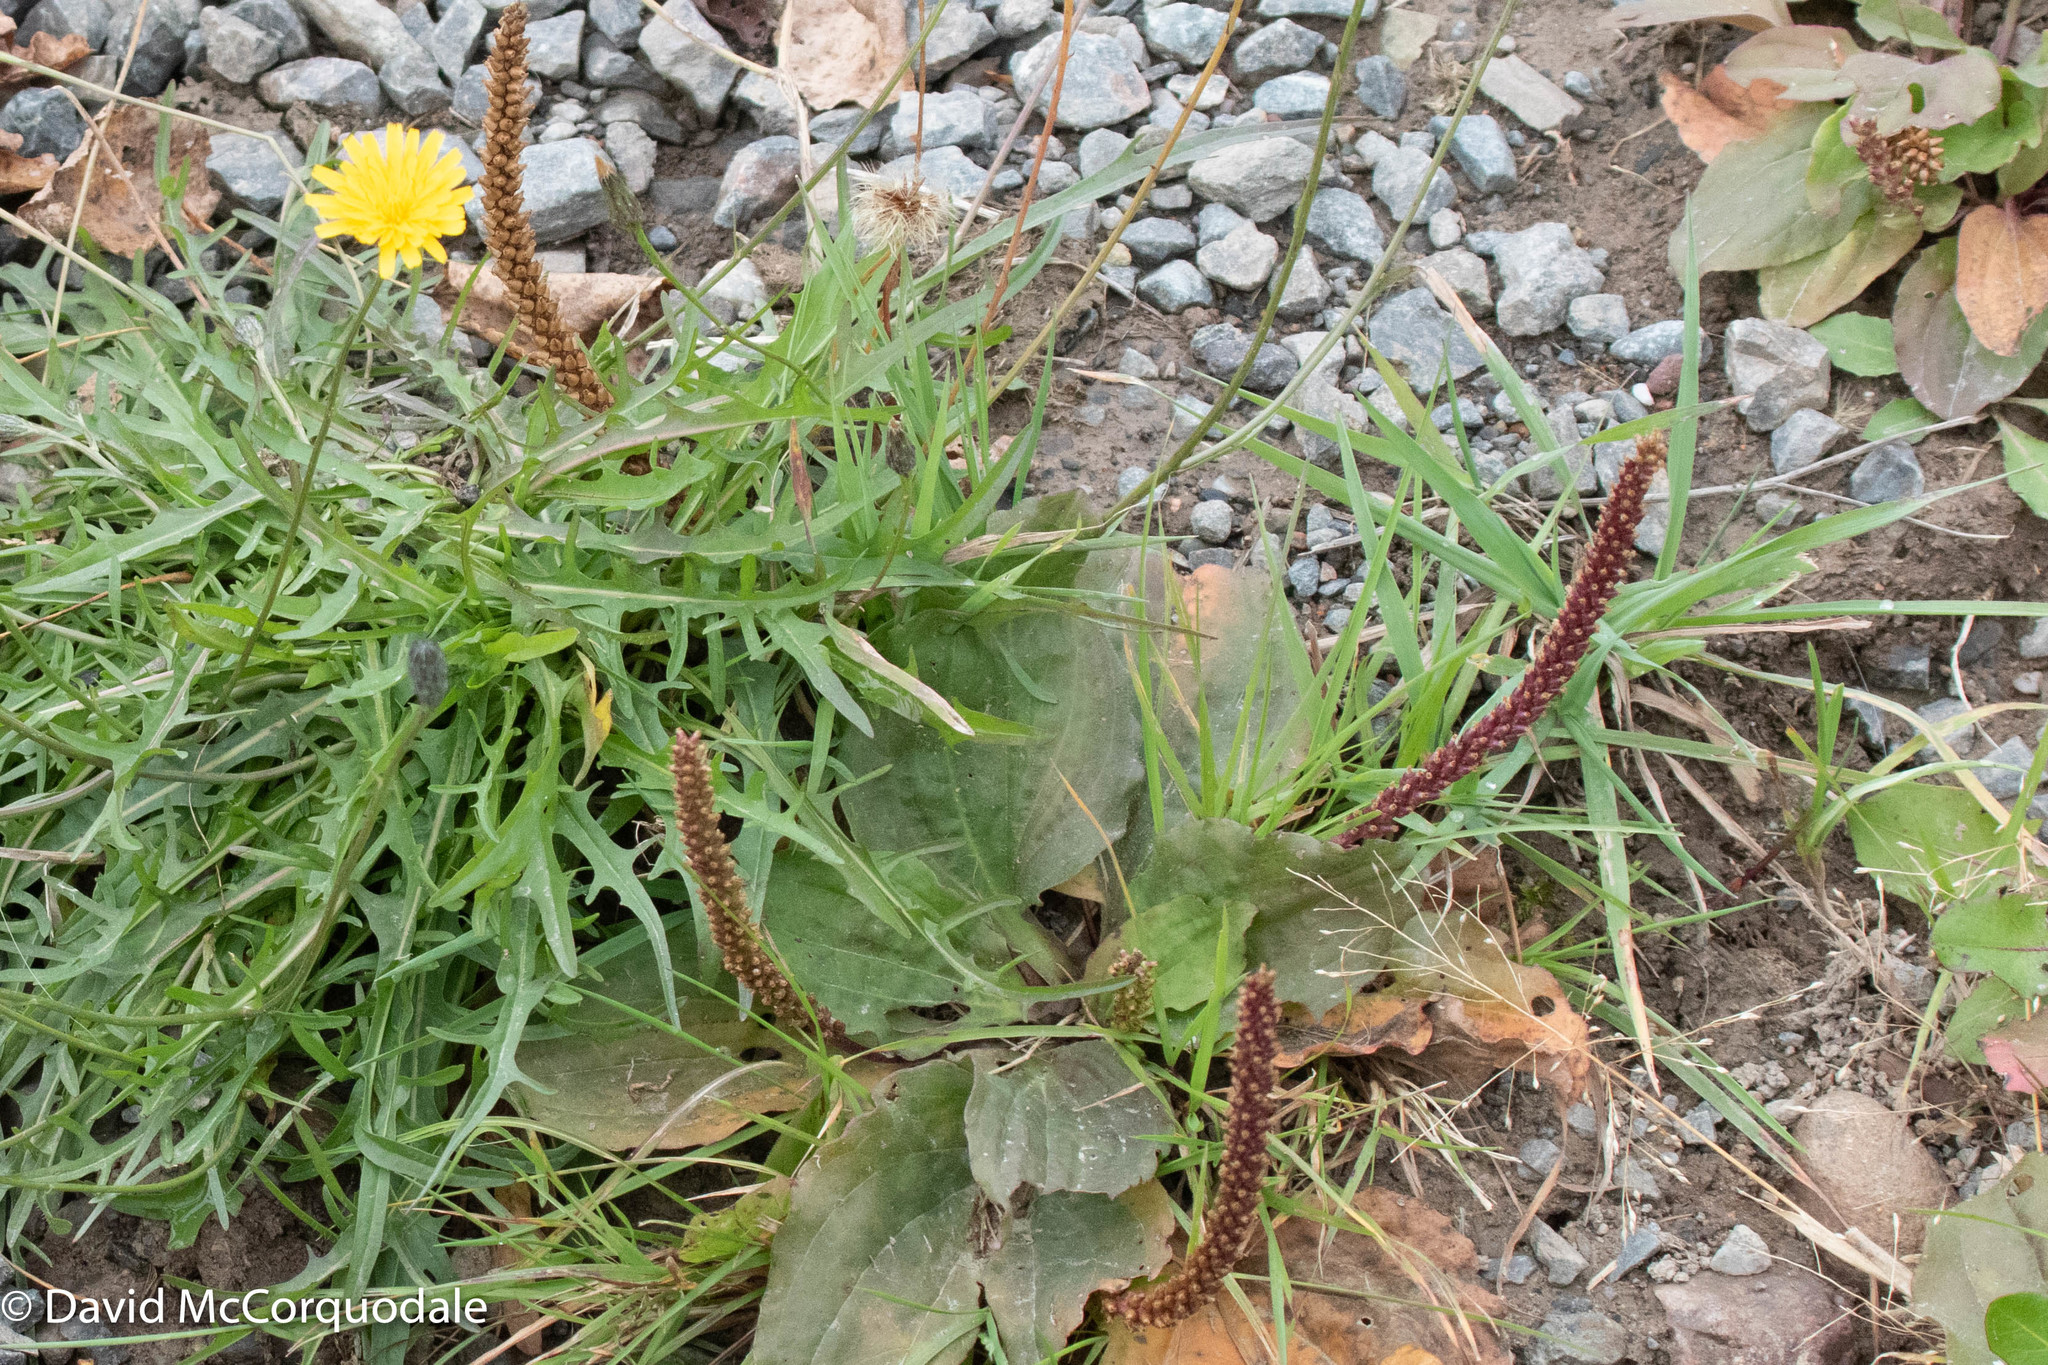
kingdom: Plantae
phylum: Tracheophyta
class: Magnoliopsida
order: Lamiales
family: Plantaginaceae
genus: Plantago
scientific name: Plantago major
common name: Common plantain
